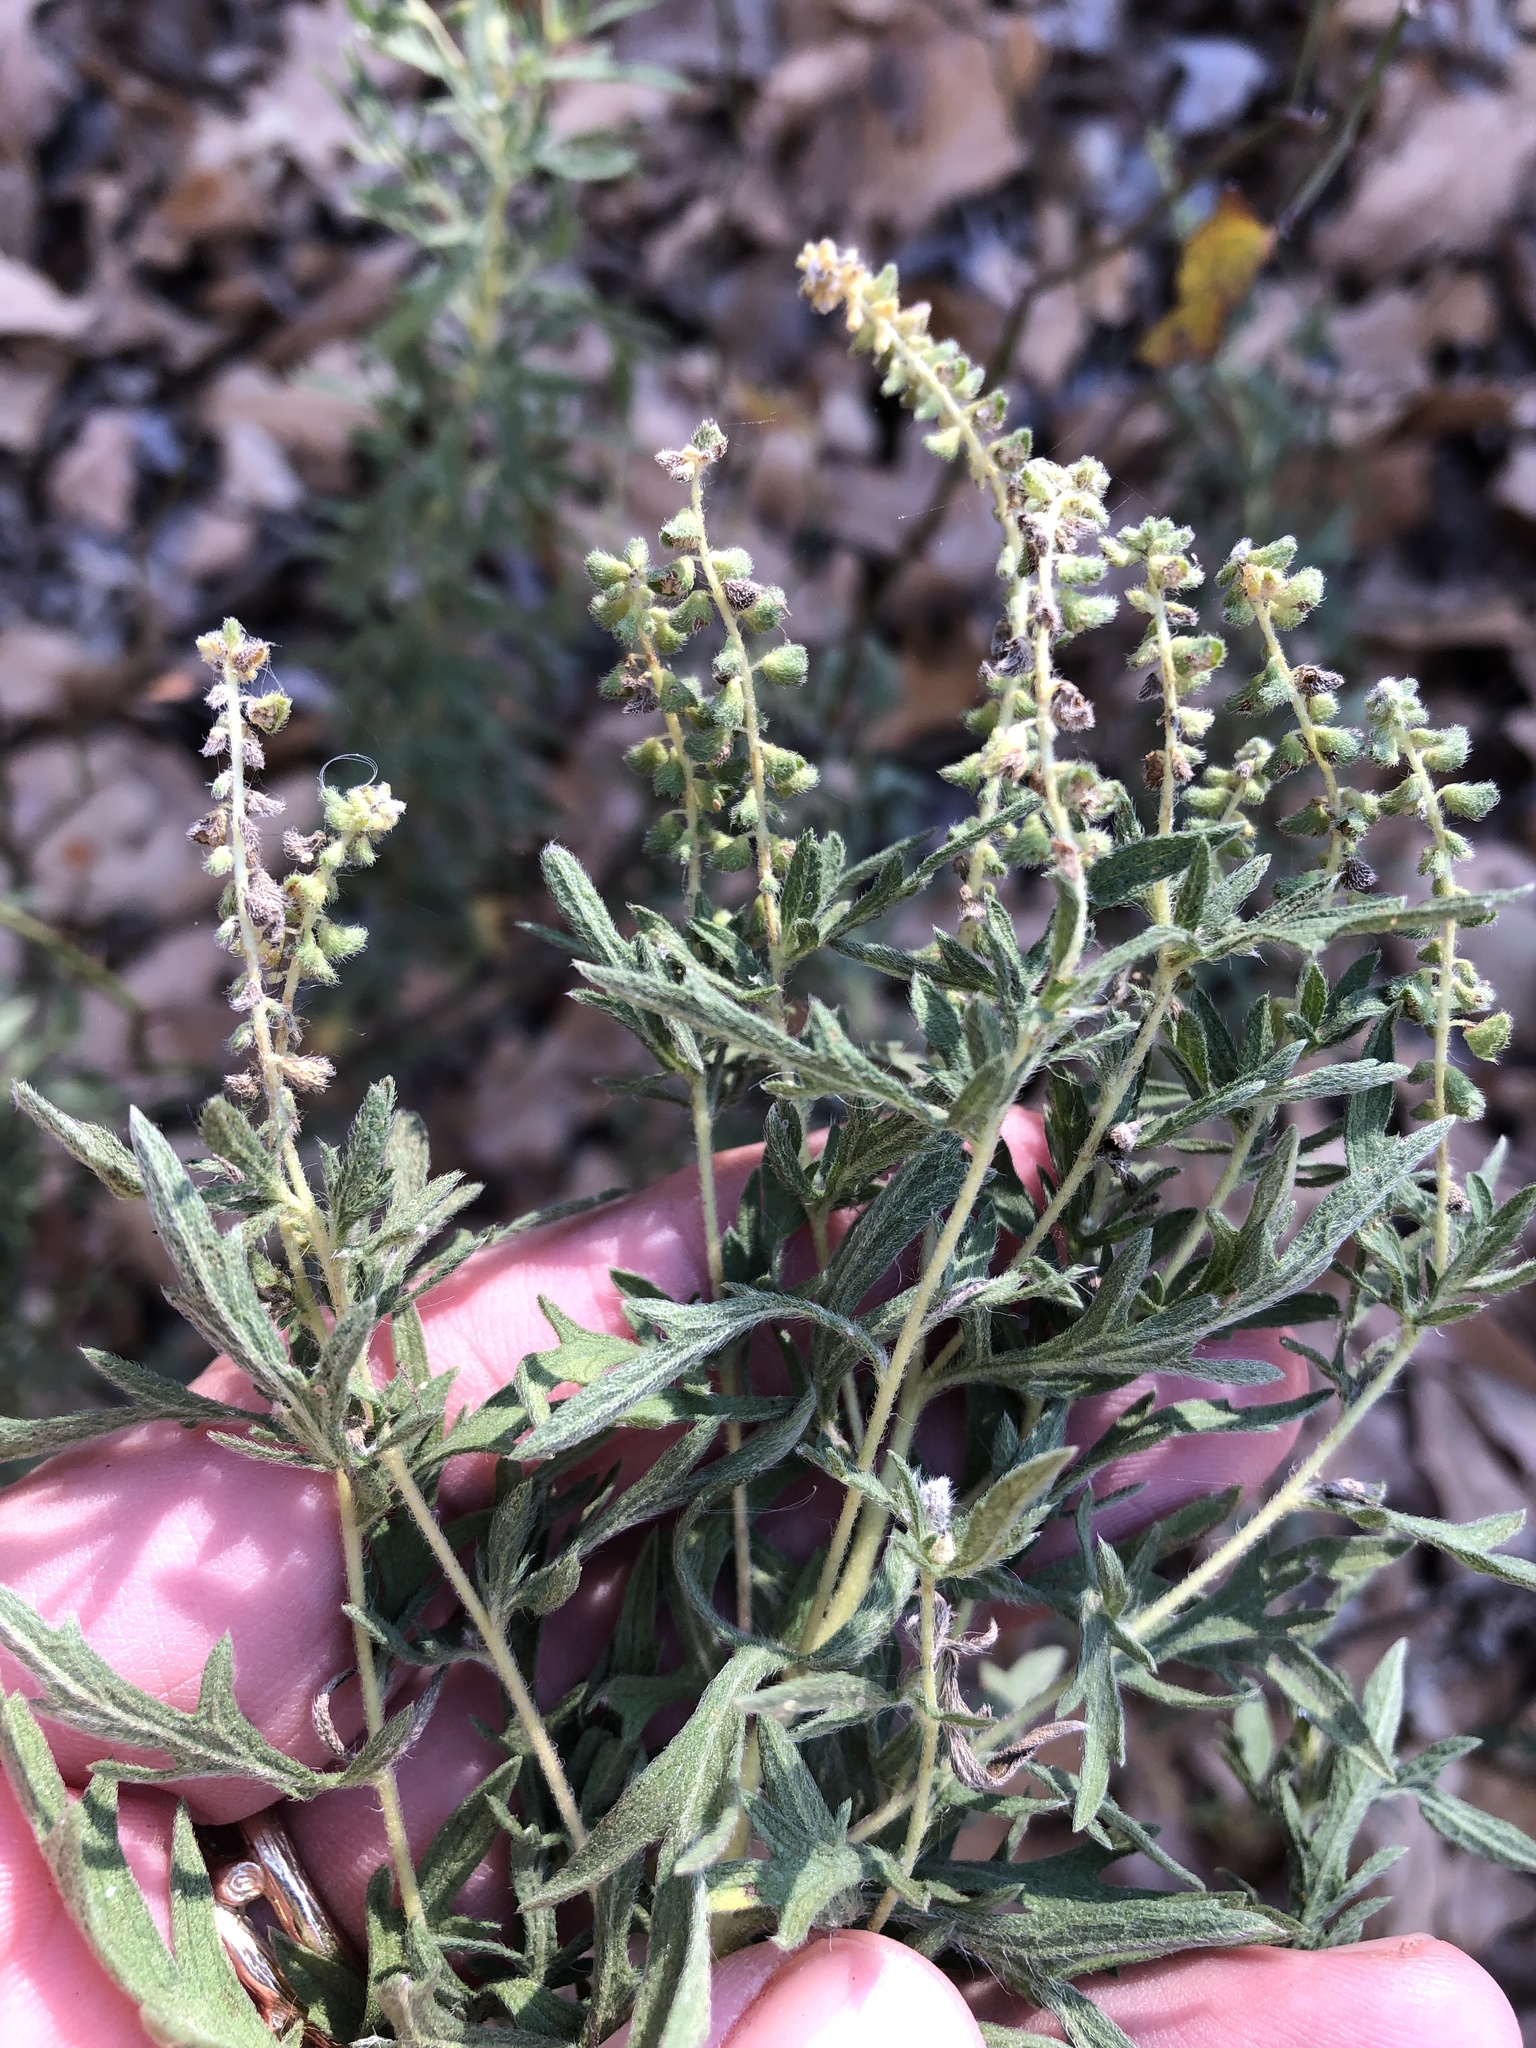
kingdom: Plantae
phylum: Tracheophyta
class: Magnoliopsida
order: Asterales
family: Asteraceae
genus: Ambrosia
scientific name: Ambrosia psilostachya
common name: Perennial ragweed
